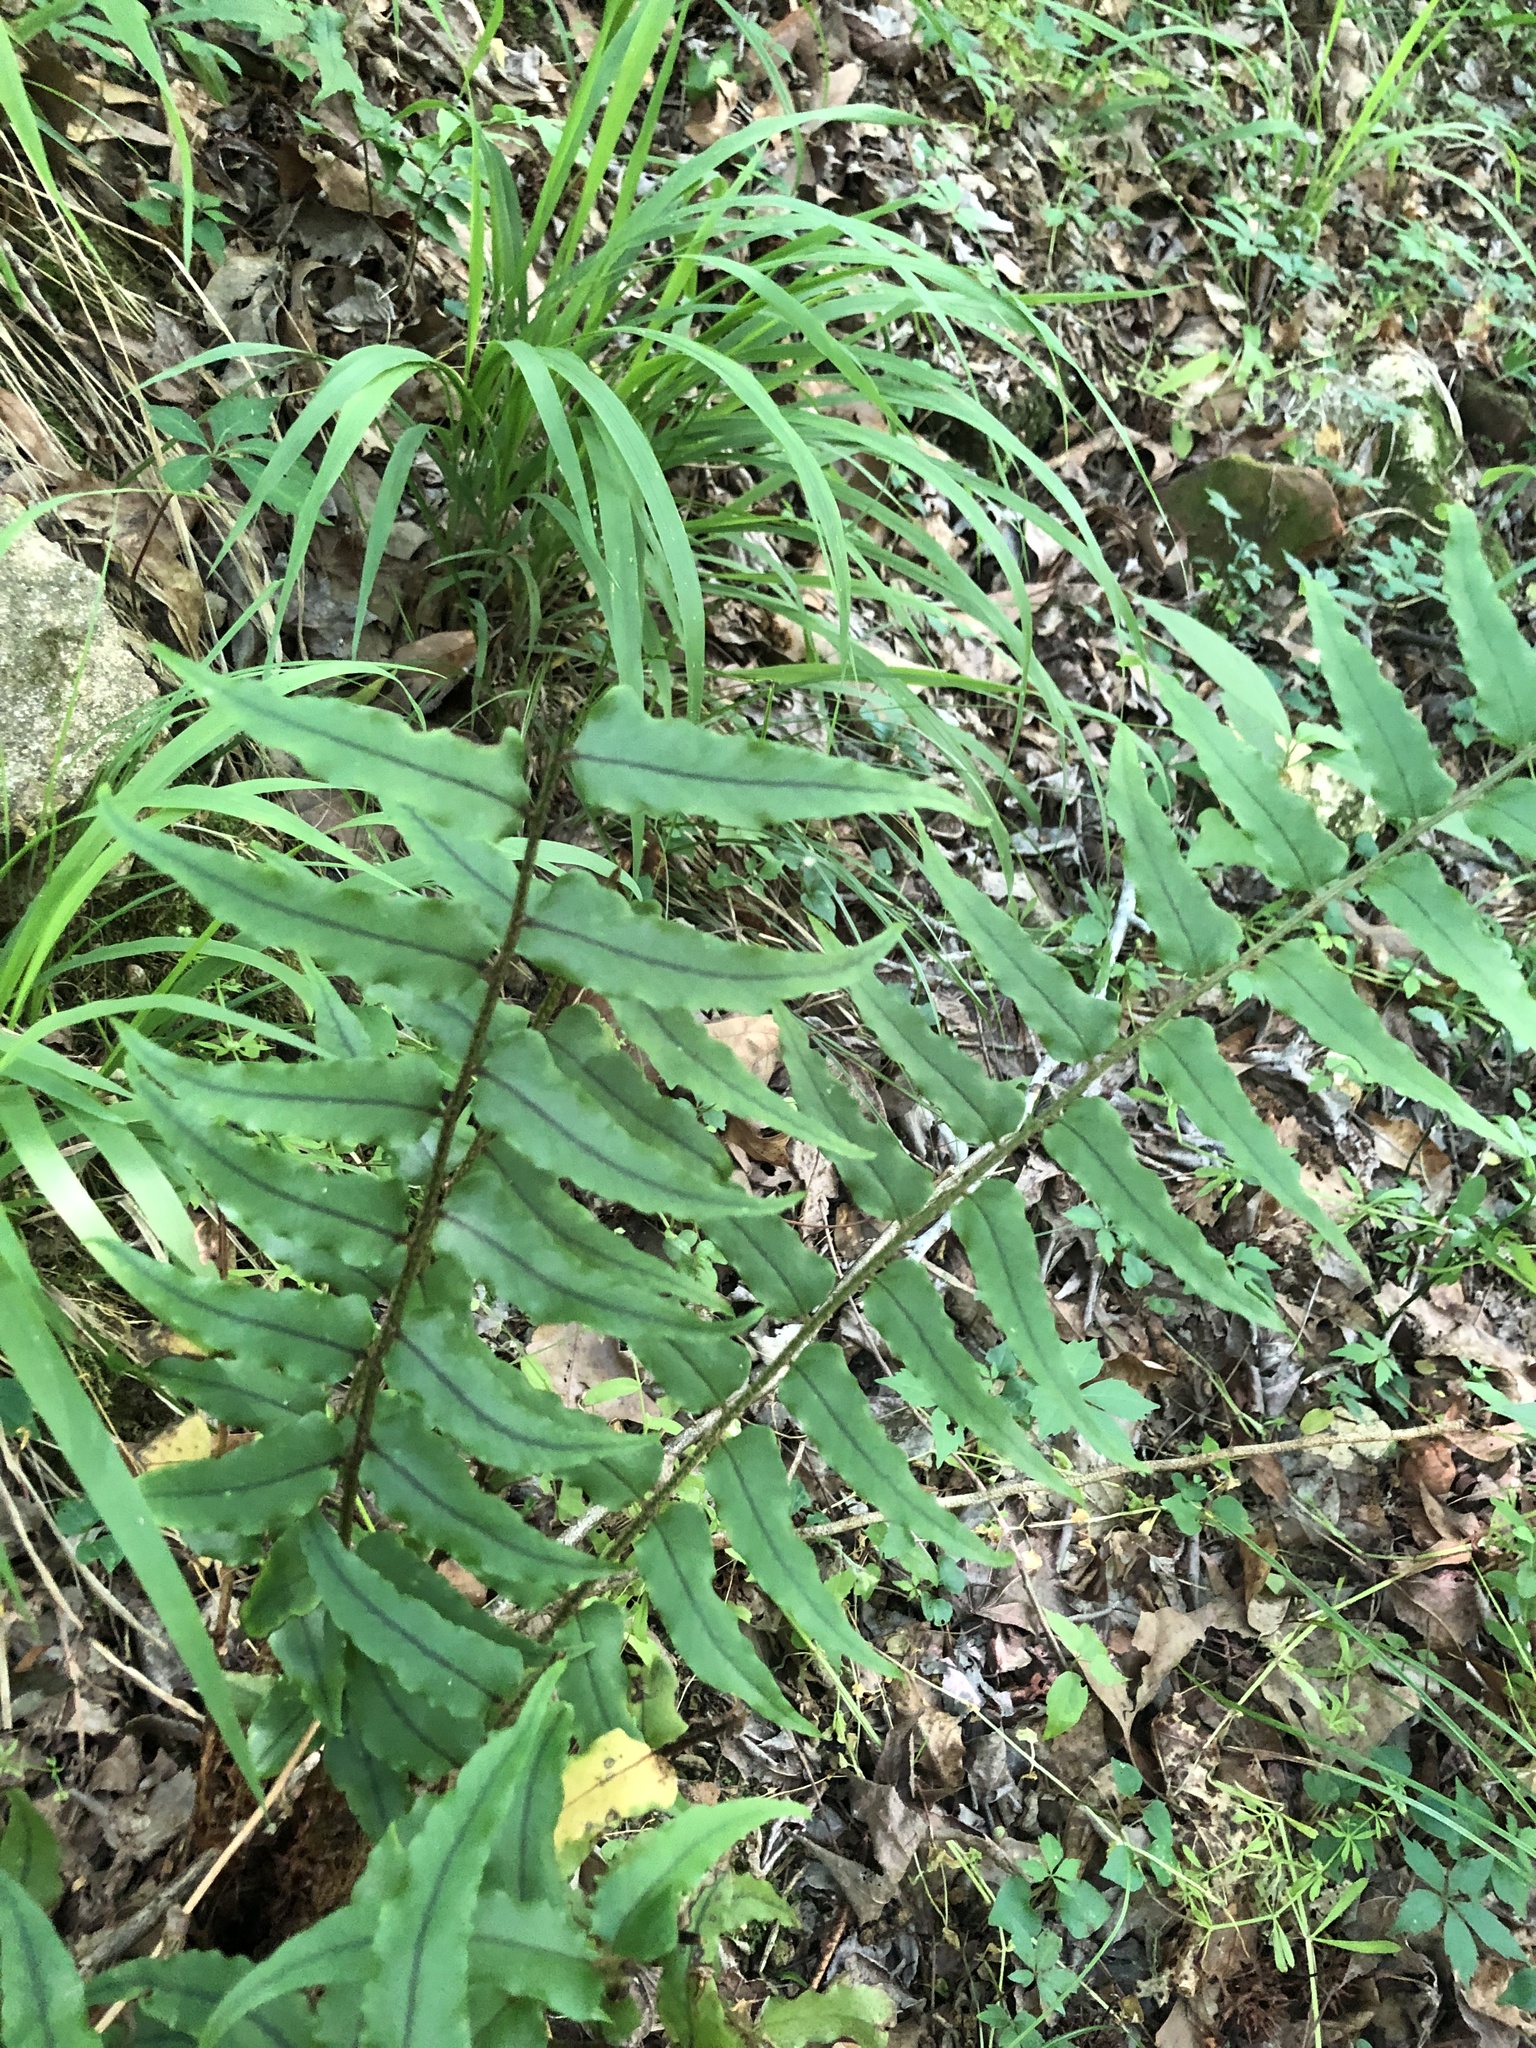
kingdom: Plantae
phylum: Tracheophyta
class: Polypodiopsida
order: Polypodiales
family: Dryopteridaceae
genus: Cyrtomium
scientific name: Cyrtomium fortunei
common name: Asian netvein hollyfern
